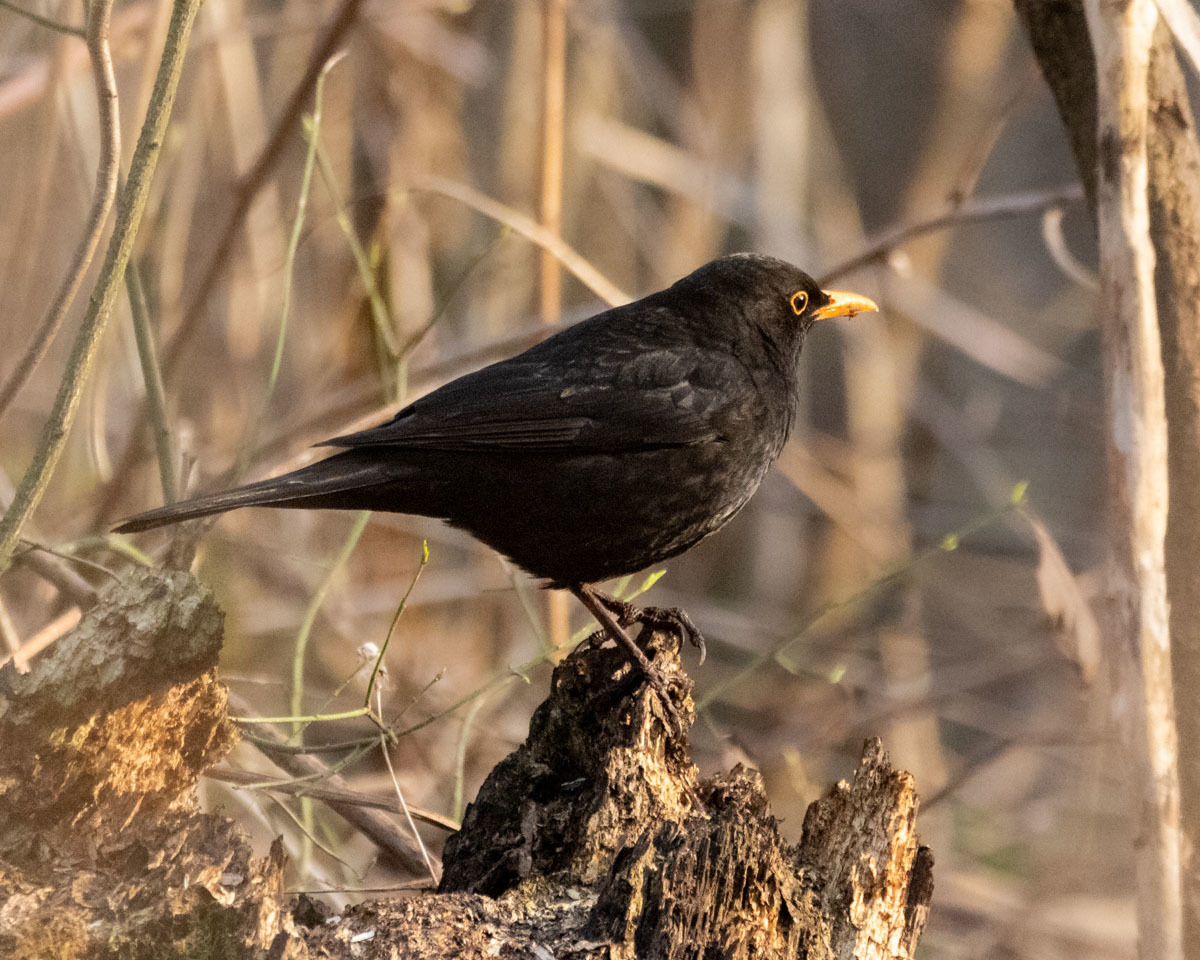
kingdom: Animalia
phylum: Chordata
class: Aves
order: Passeriformes
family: Turdidae
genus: Turdus
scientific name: Turdus merula
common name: Common blackbird
